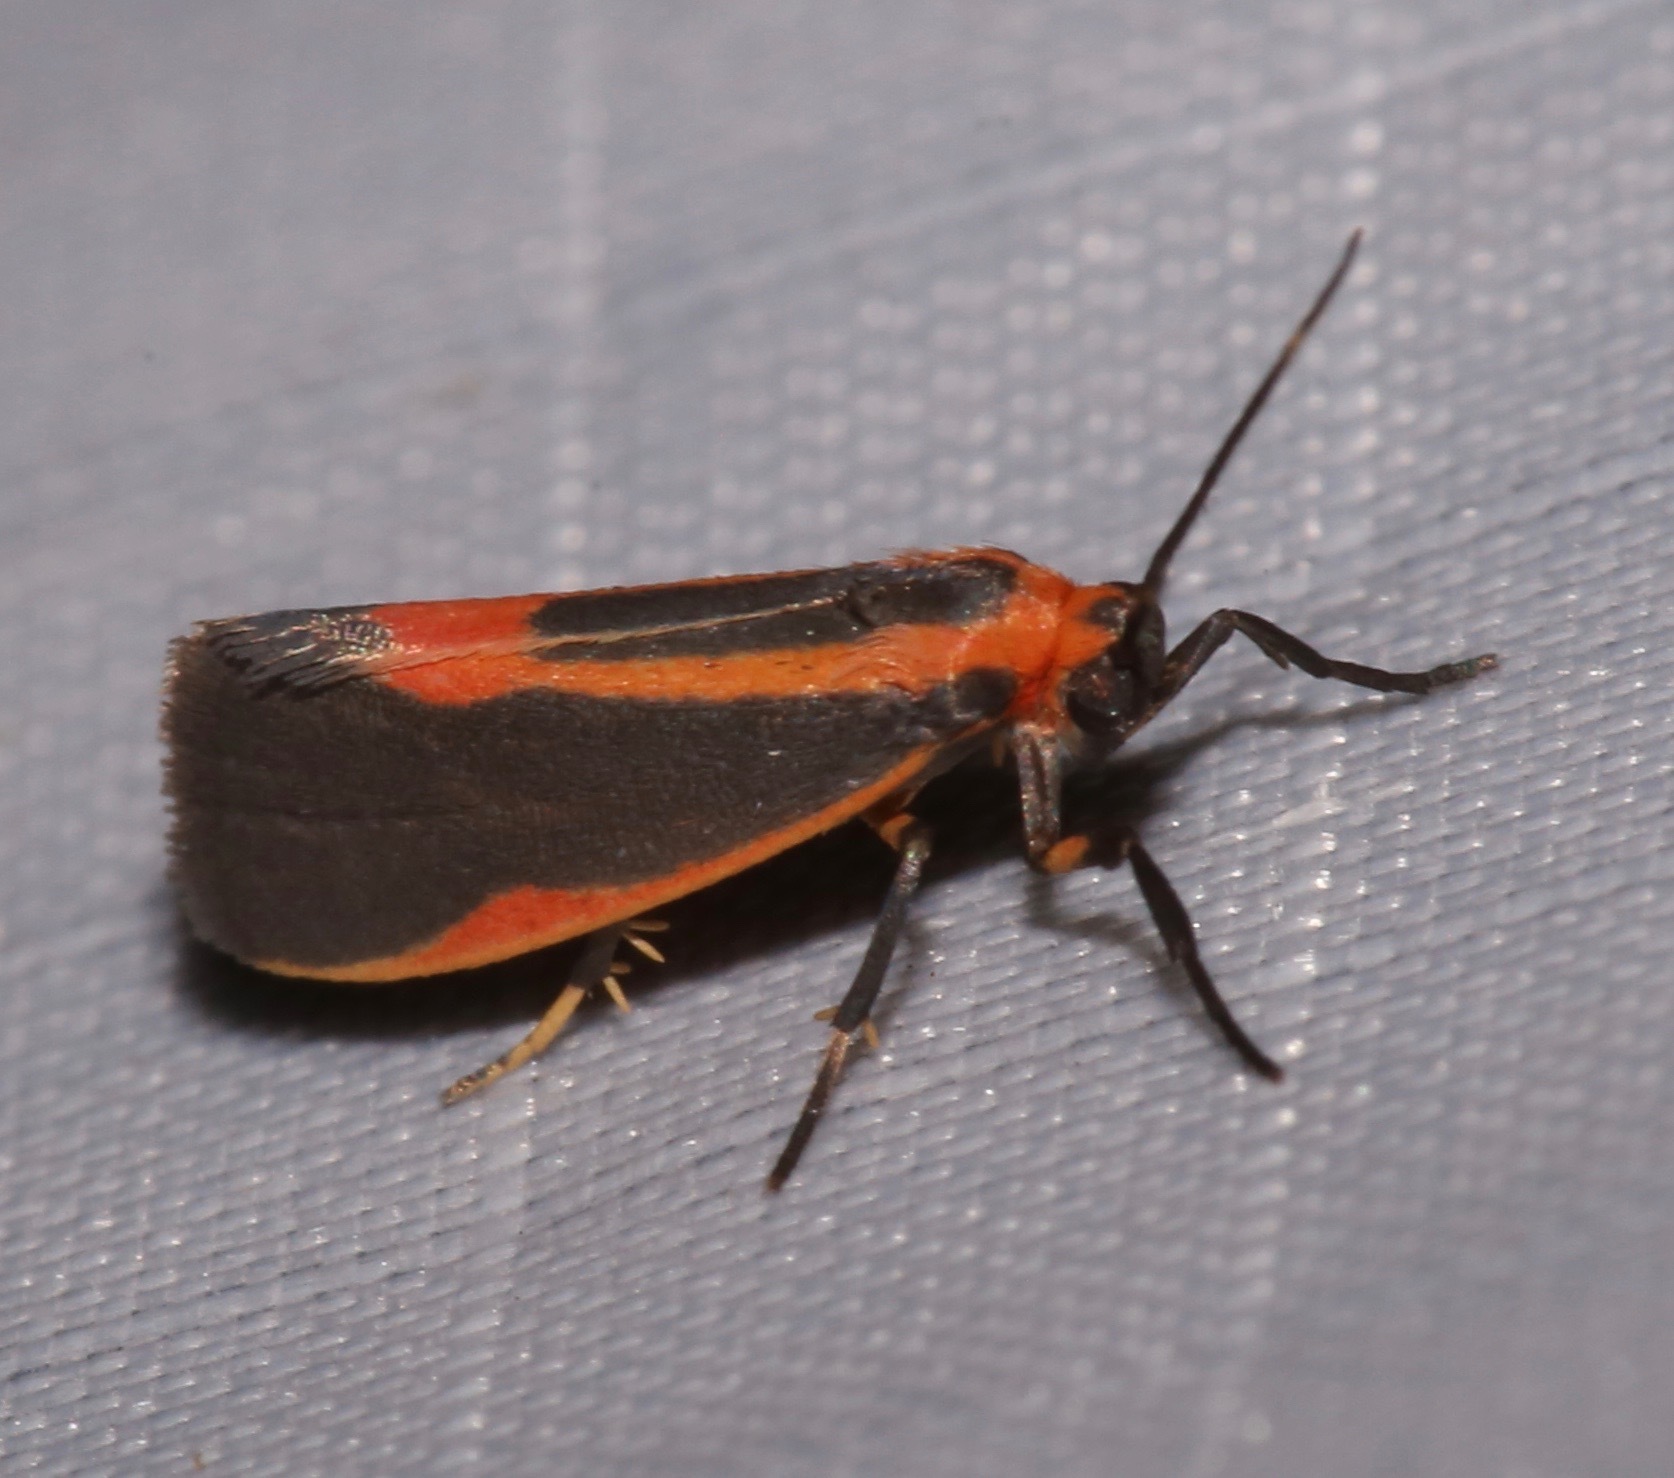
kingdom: Animalia
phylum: Arthropoda
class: Insecta
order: Lepidoptera
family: Erebidae
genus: Cisthene
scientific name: Cisthene subjecta
